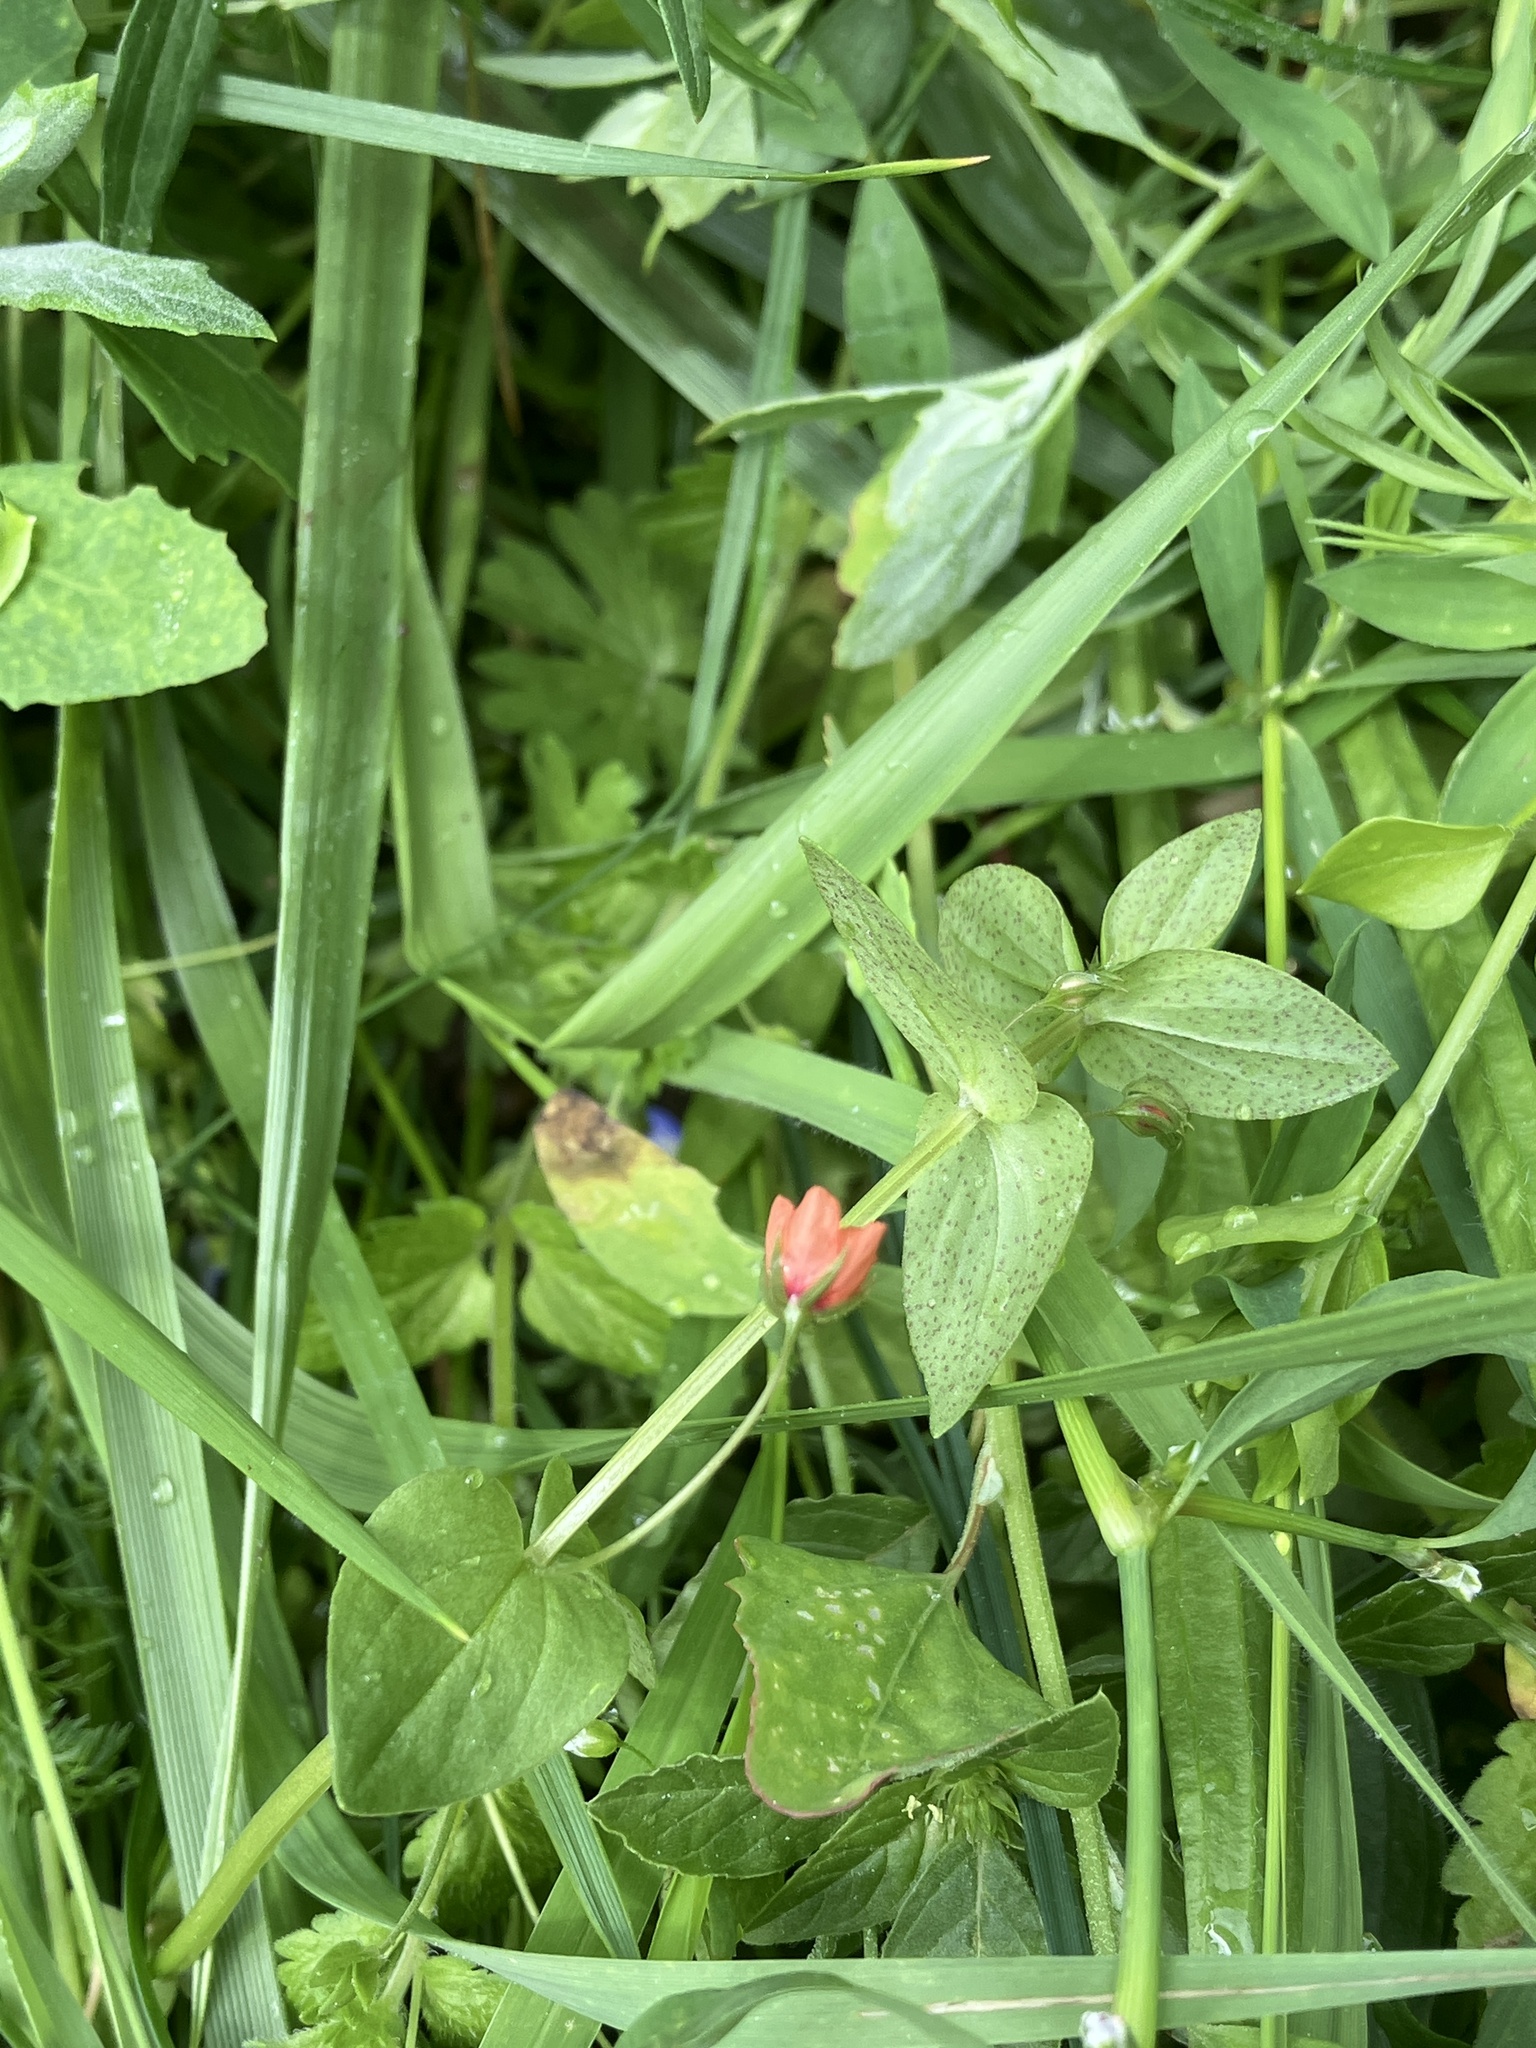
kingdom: Plantae
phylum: Tracheophyta
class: Magnoliopsida
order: Ericales
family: Primulaceae
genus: Lysimachia
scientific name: Lysimachia arvensis
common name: Scarlet pimpernel
